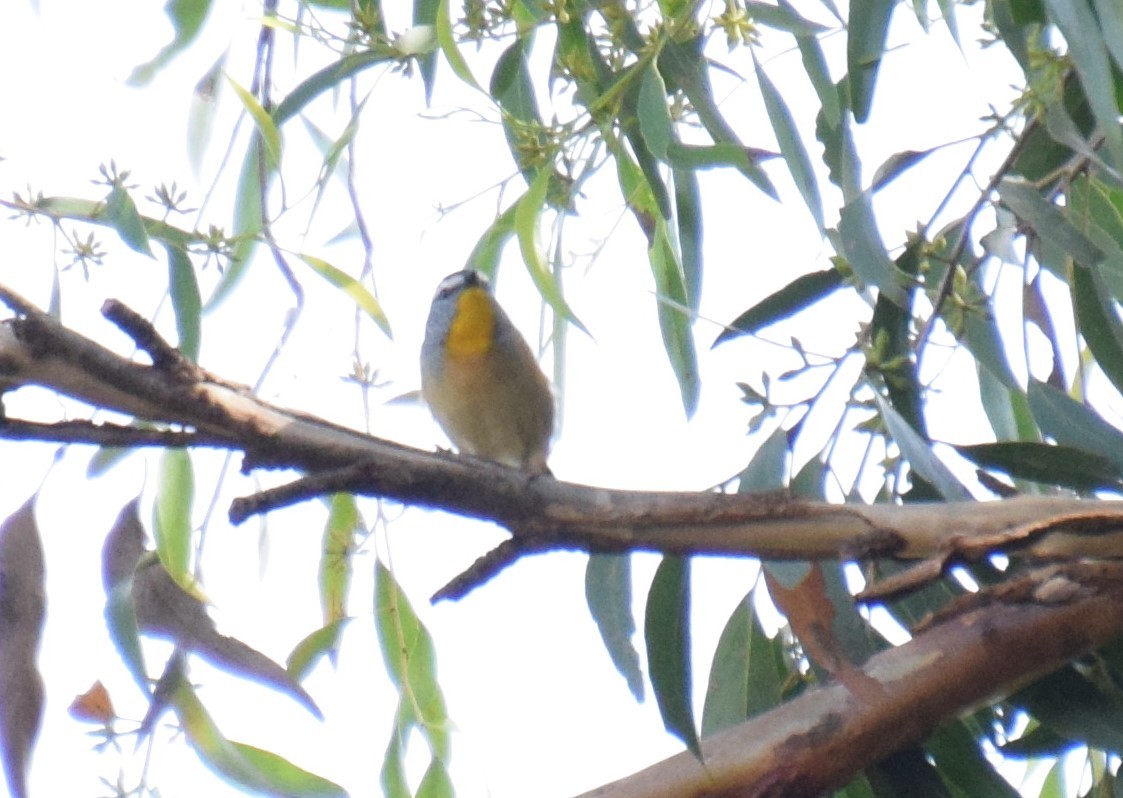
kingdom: Animalia
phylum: Chordata
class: Aves
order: Passeriformes
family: Pardalotidae
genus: Pardalotus
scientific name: Pardalotus punctatus
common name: Spotted pardalote
